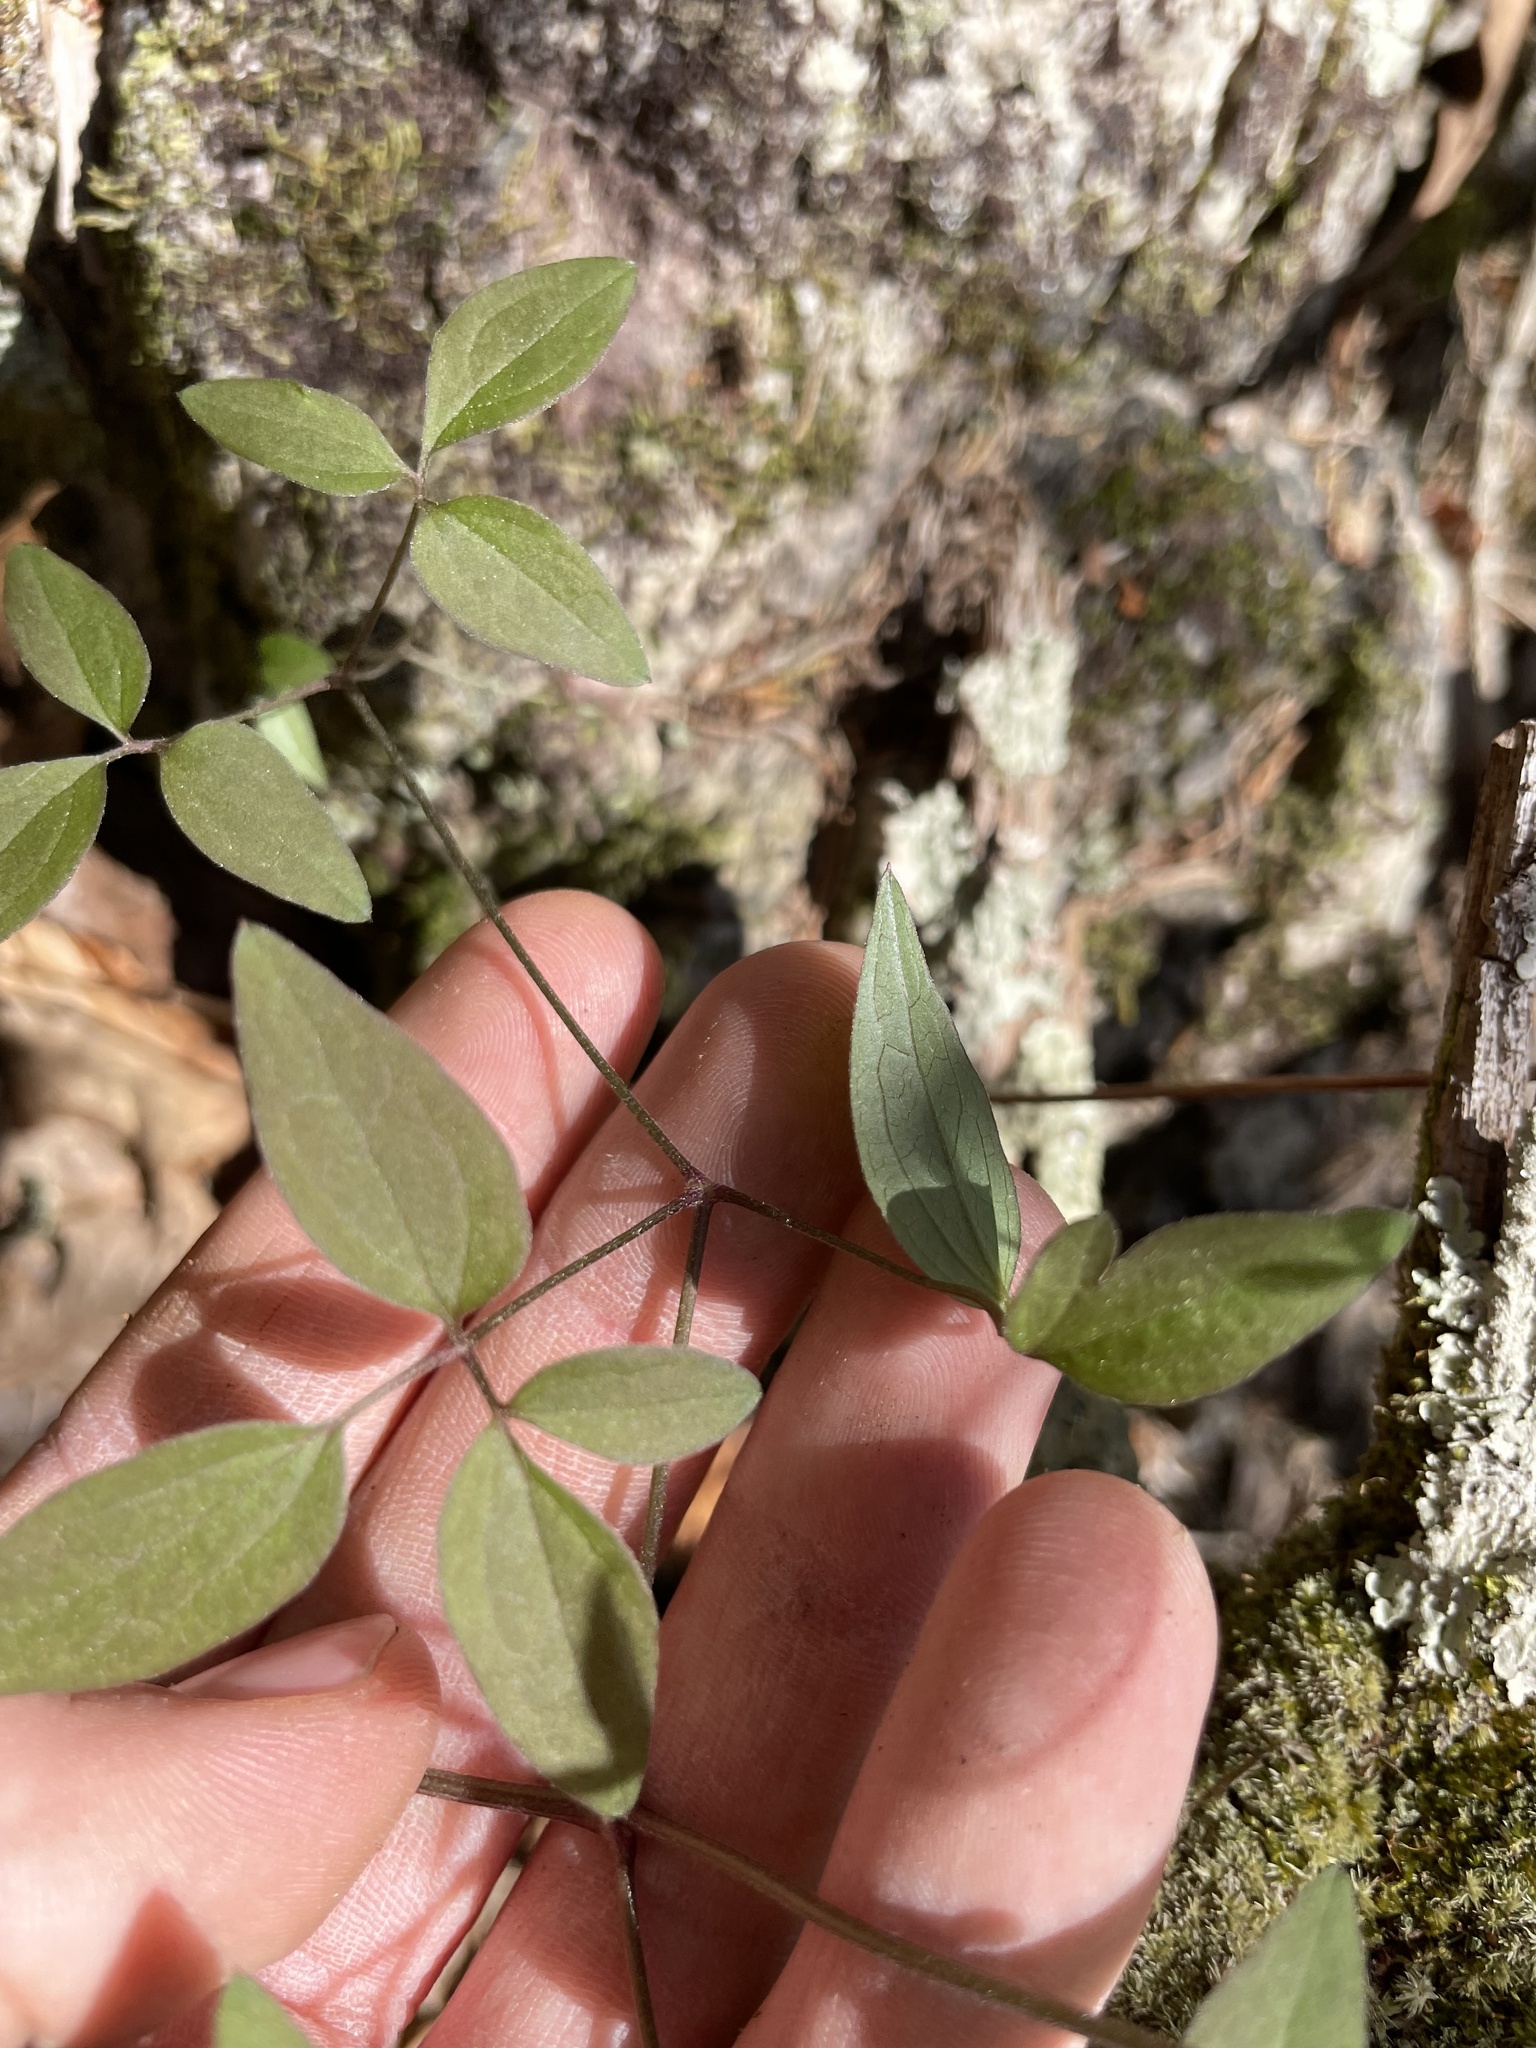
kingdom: Plantae
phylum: Tracheophyta
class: Magnoliopsida
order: Ranunculales
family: Ranunculaceae
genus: Clematis
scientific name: Clematis viorna
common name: Leather-flower
